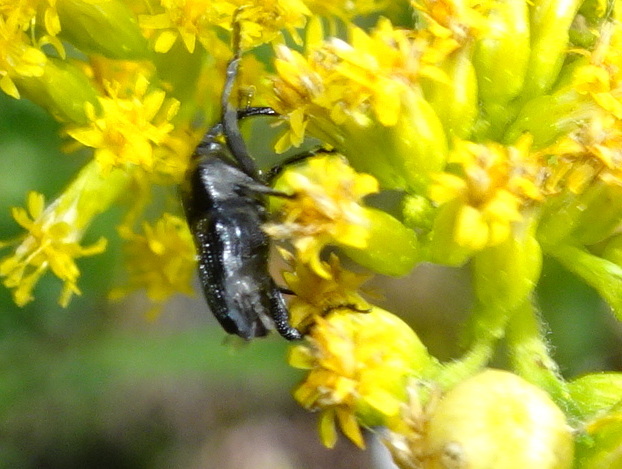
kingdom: Animalia
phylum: Arthropoda
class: Insecta
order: Coleoptera
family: Curculionidae
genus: Madarellus
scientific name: Madarellus undulatus
